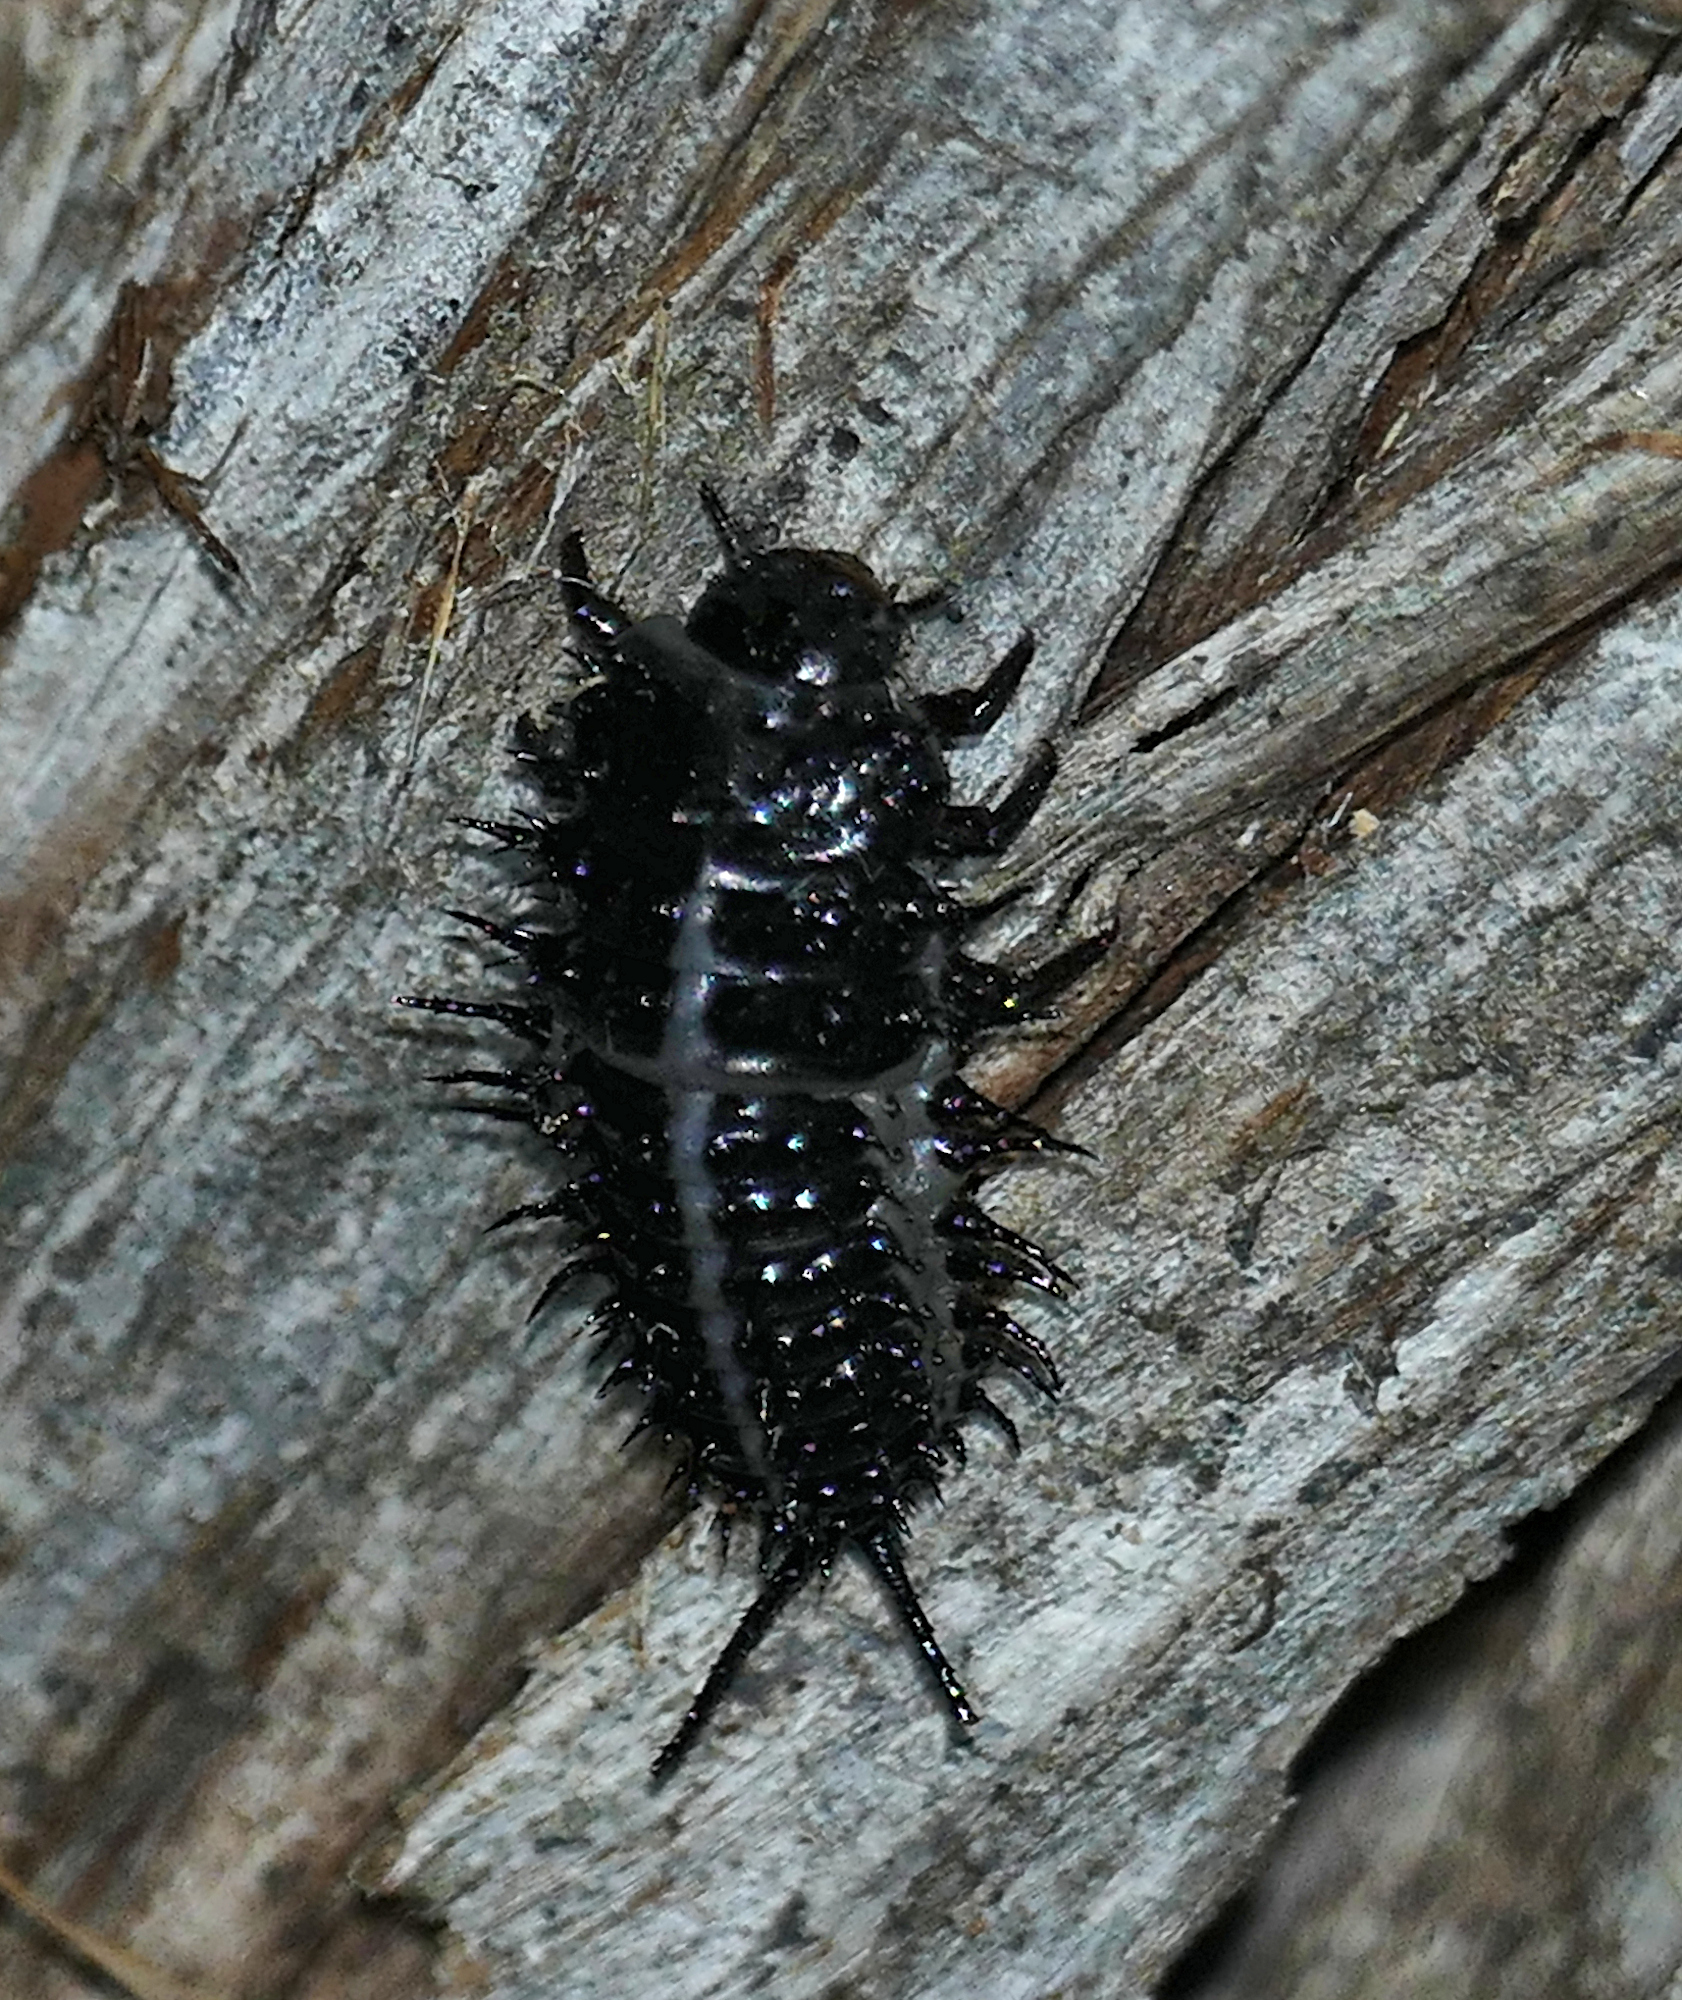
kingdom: Animalia
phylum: Arthropoda
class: Insecta
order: Coleoptera
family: Erotylidae
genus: Gibbifer
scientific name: Gibbifer californicus
